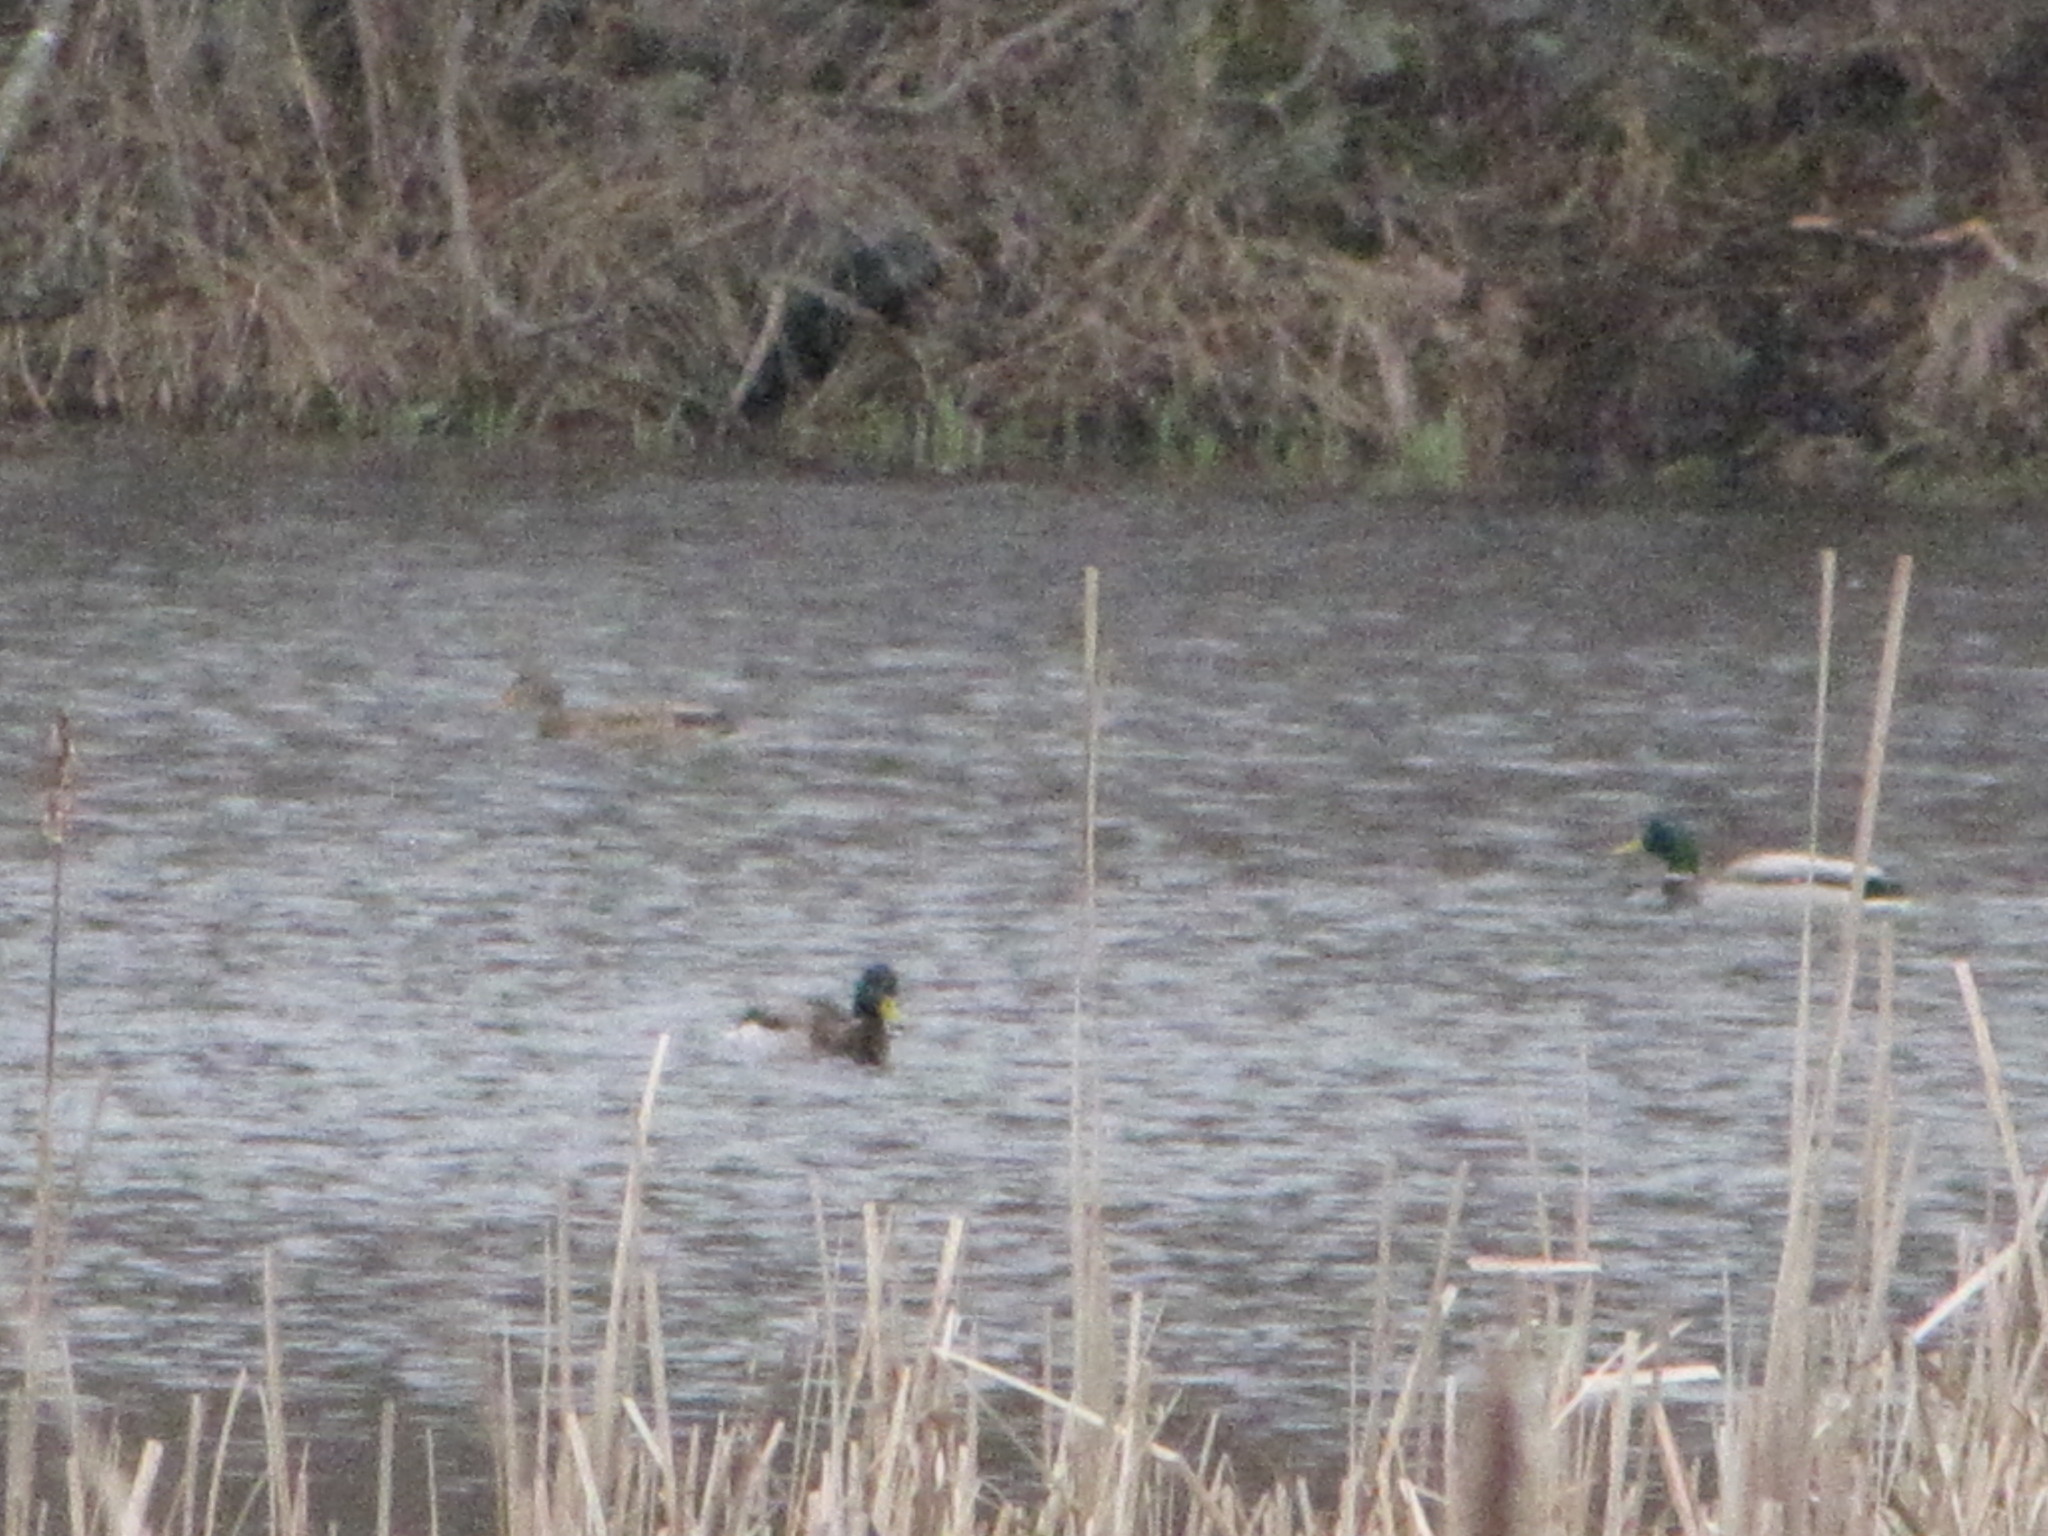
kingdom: Animalia
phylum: Chordata
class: Aves
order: Anseriformes
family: Anatidae
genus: Anas
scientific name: Anas platyrhynchos
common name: Mallard
